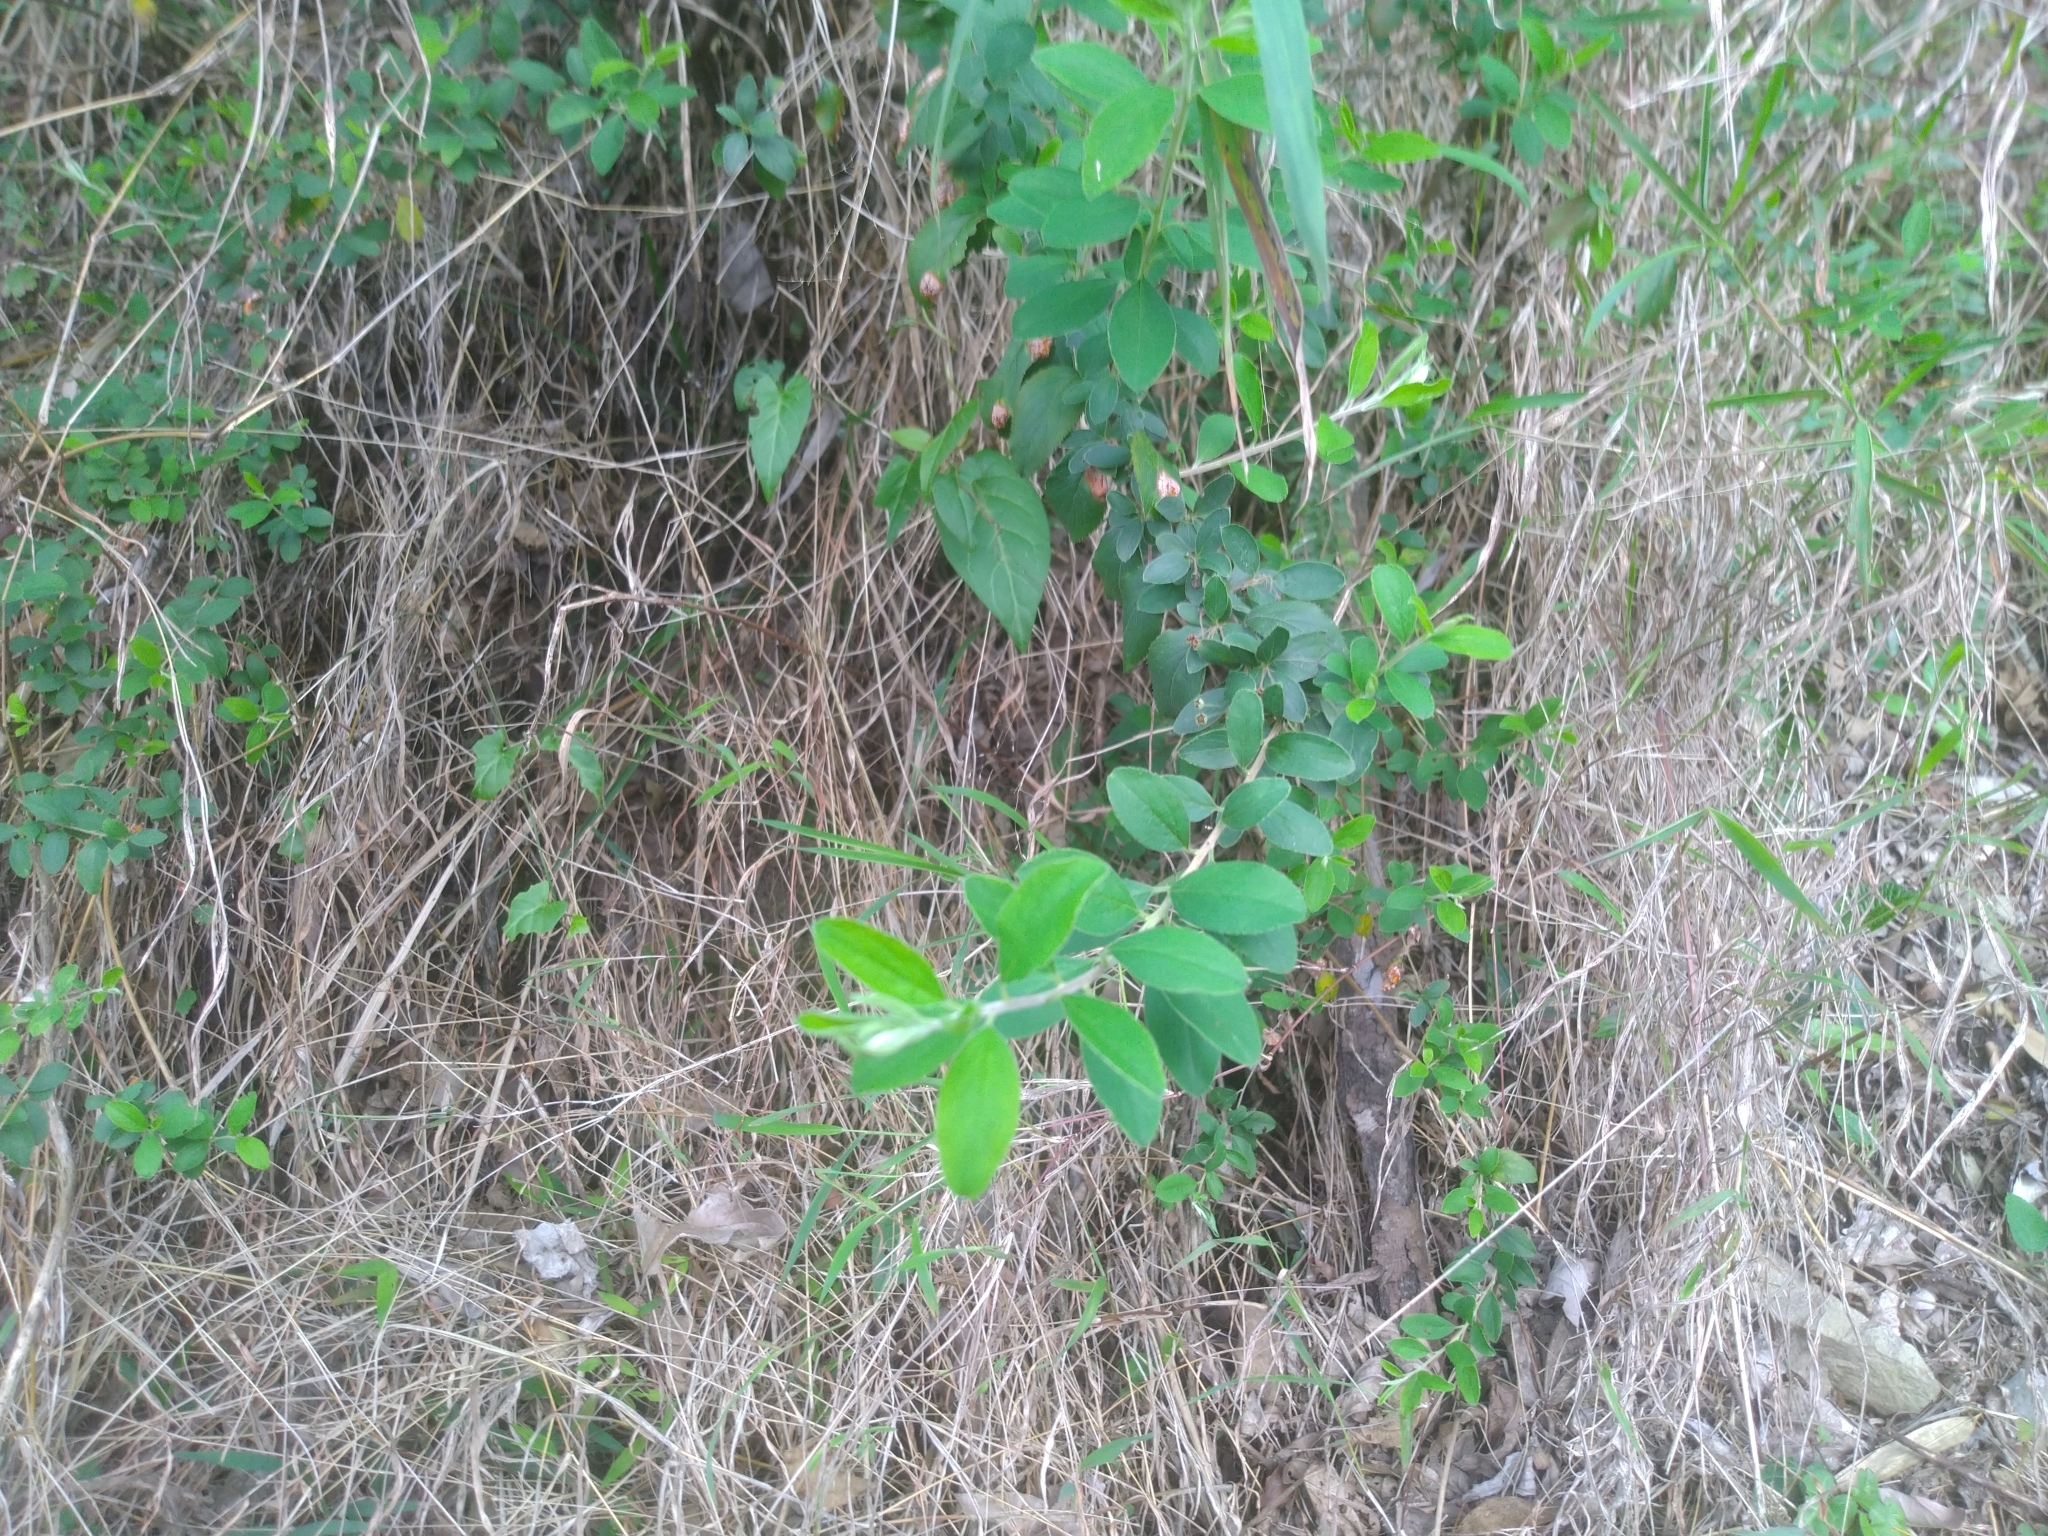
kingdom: Plantae
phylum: Tracheophyta
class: Magnoliopsida
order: Rosales
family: Rosaceae
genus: Spiraea
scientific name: Spiraea prunifolia
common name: Bridal-wreath spiraea
